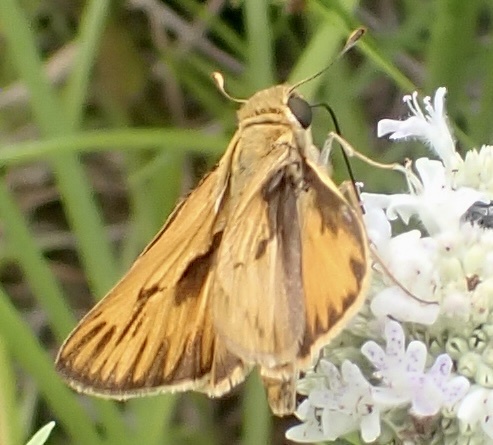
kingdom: Animalia
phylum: Arthropoda
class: Insecta
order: Lepidoptera
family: Hesperiidae
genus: Hylephila
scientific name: Hylephila phyleus
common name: Fiery skipper
